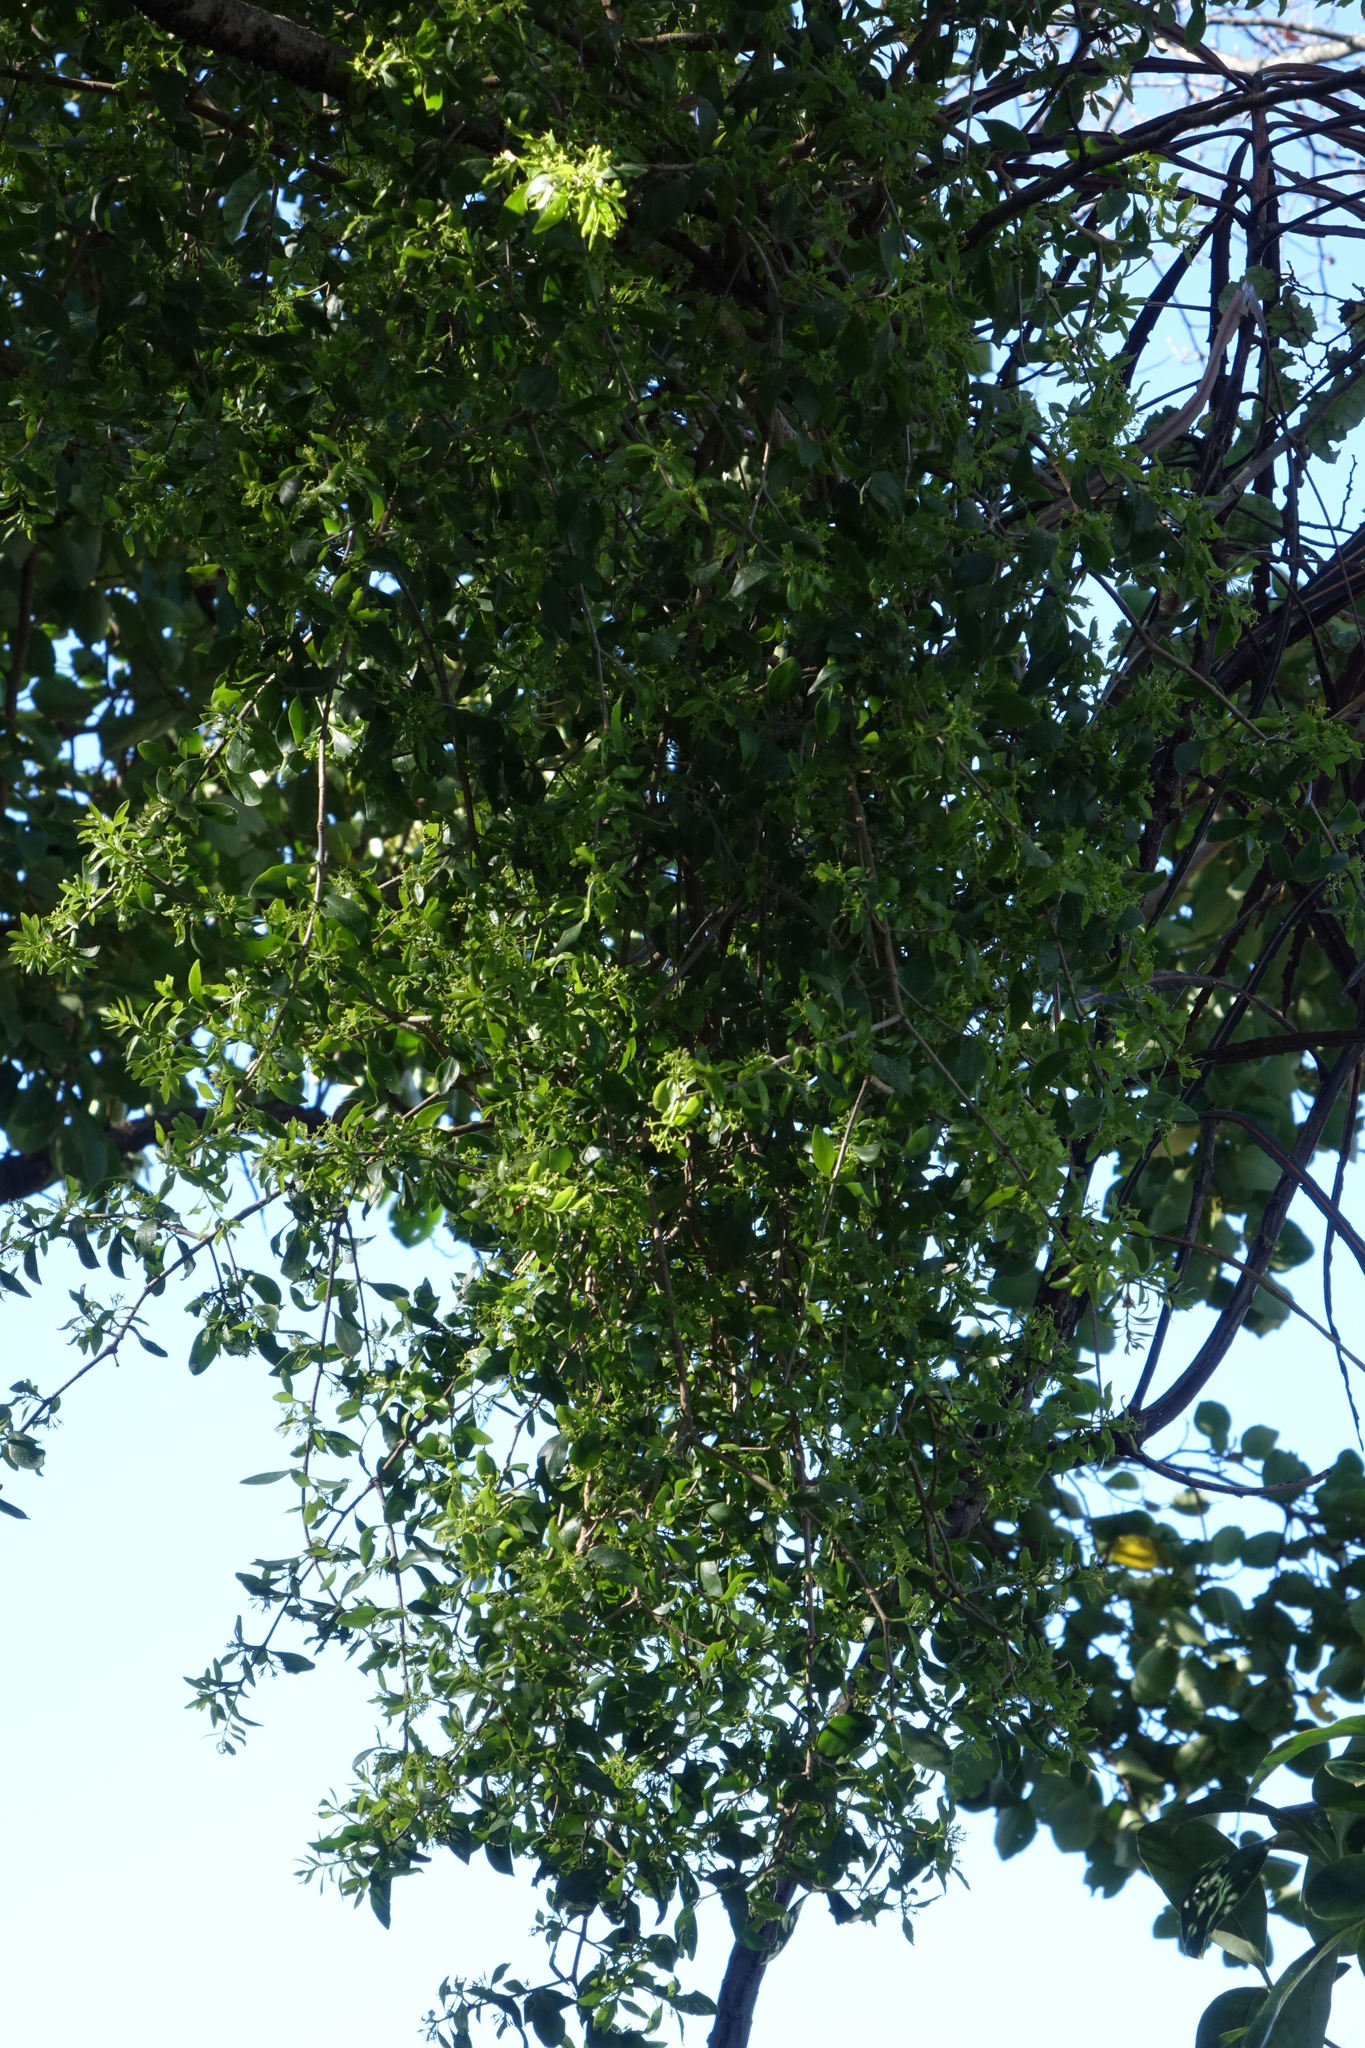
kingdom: Plantae
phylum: Tracheophyta
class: Magnoliopsida
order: Santalales
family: Loranthaceae
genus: Tupeia
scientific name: Tupeia antarctica
